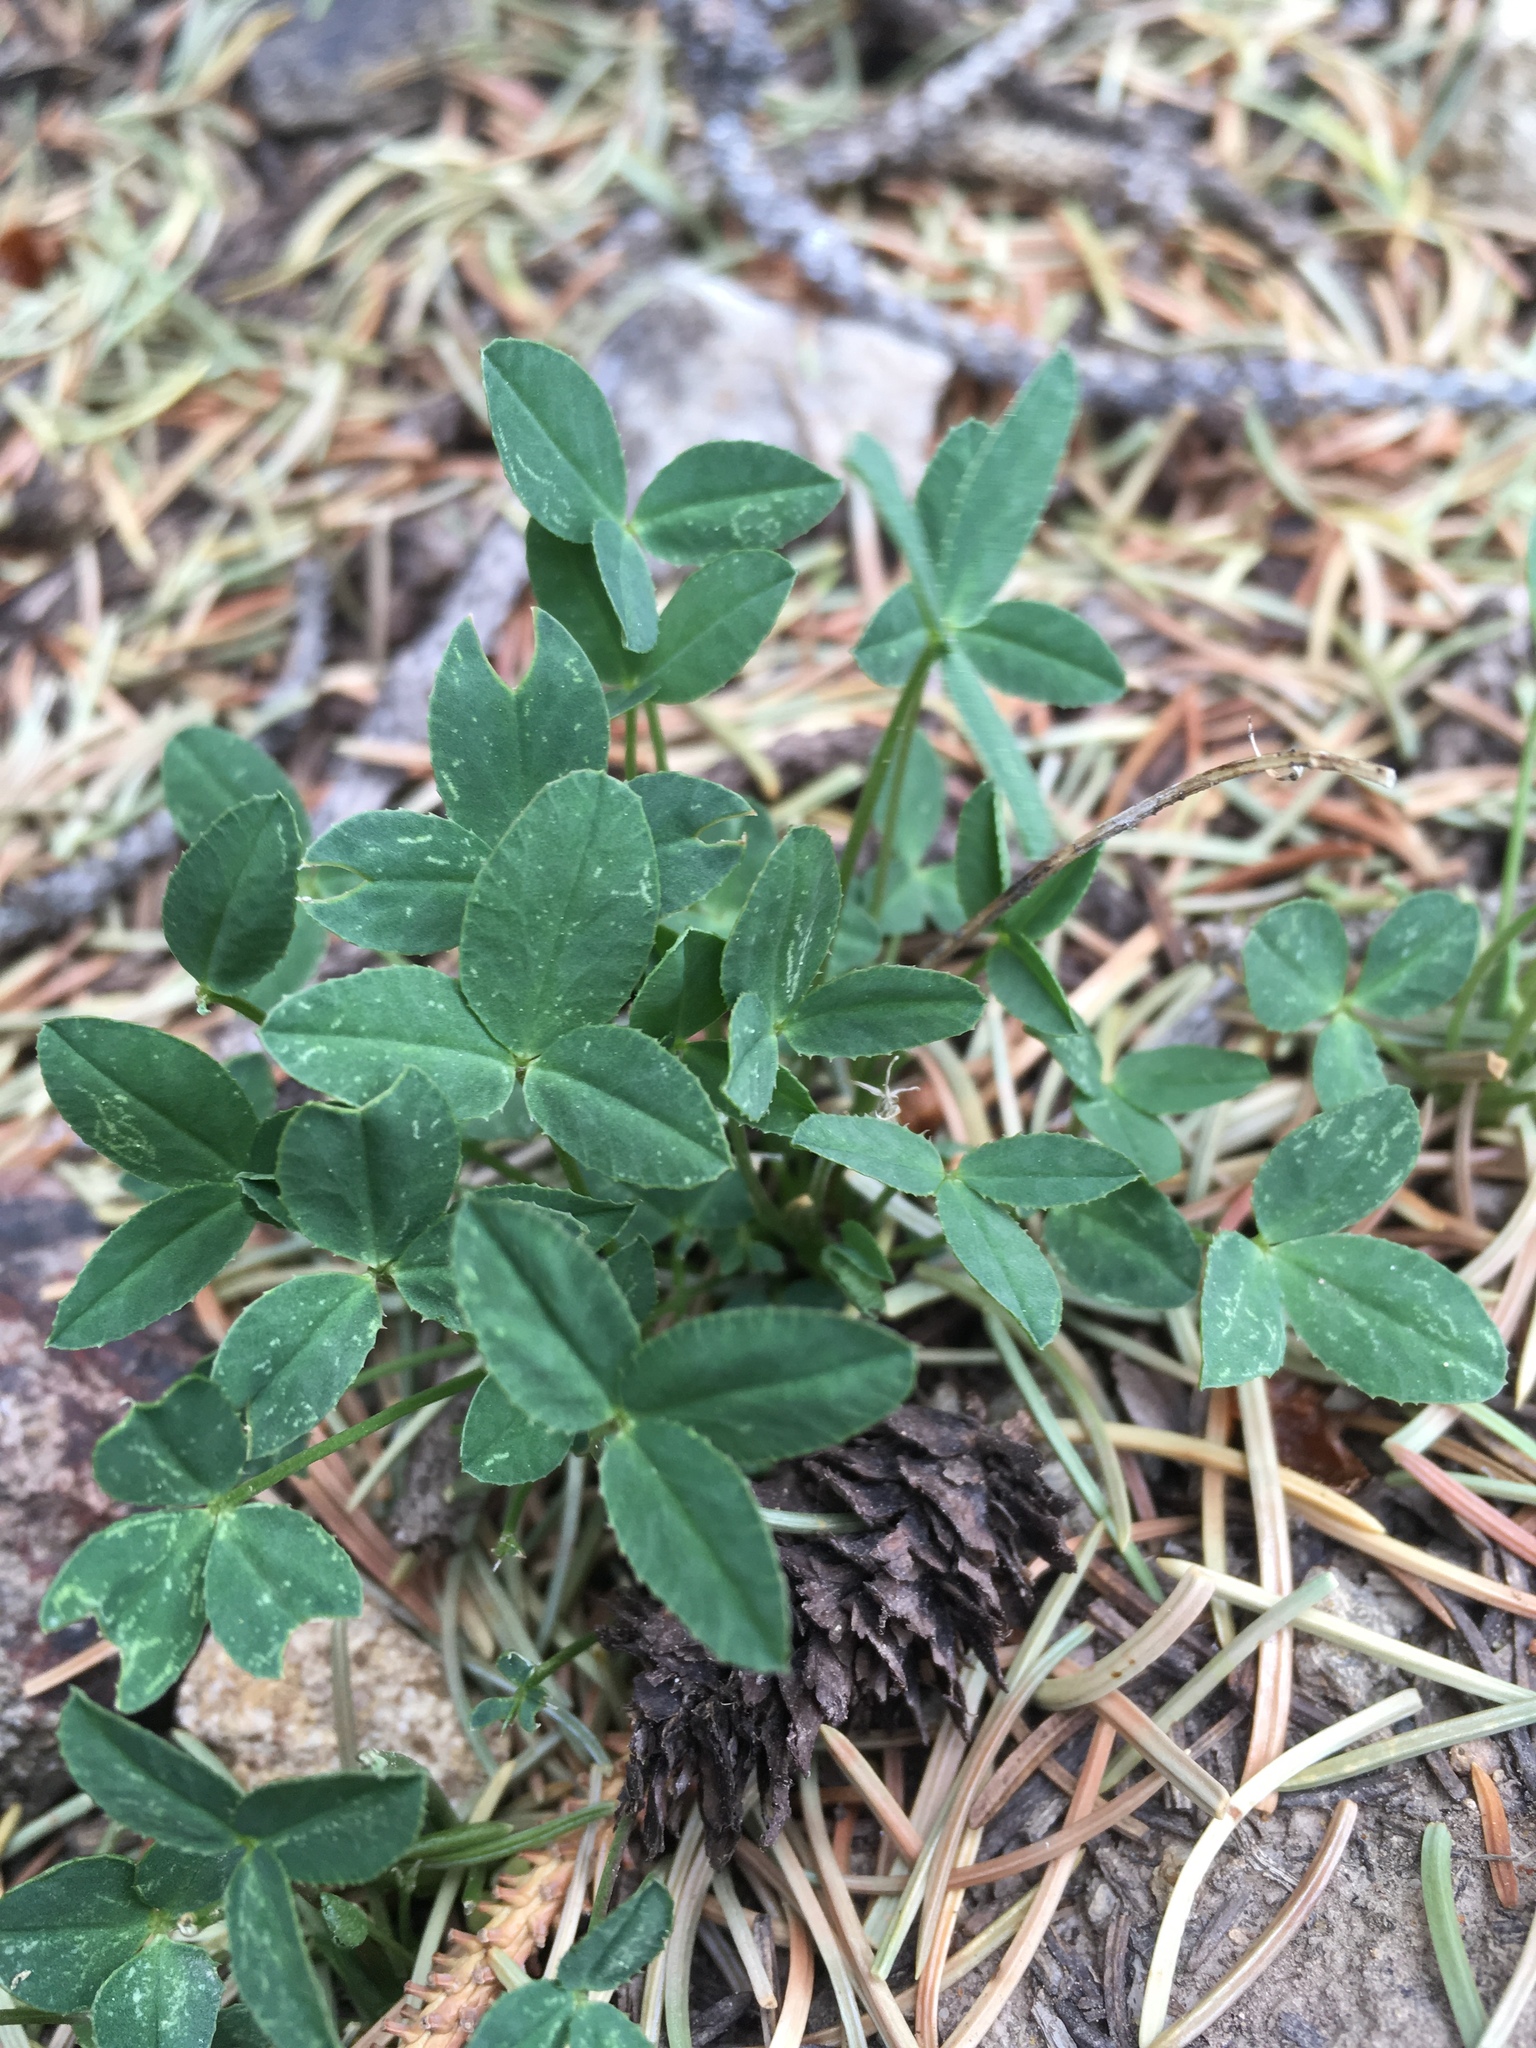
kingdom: Plantae
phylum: Tracheophyta
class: Magnoliopsida
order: Fabales
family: Fabaceae
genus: Trifolium
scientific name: Trifolium brandegeei
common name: Brandegee's clover
